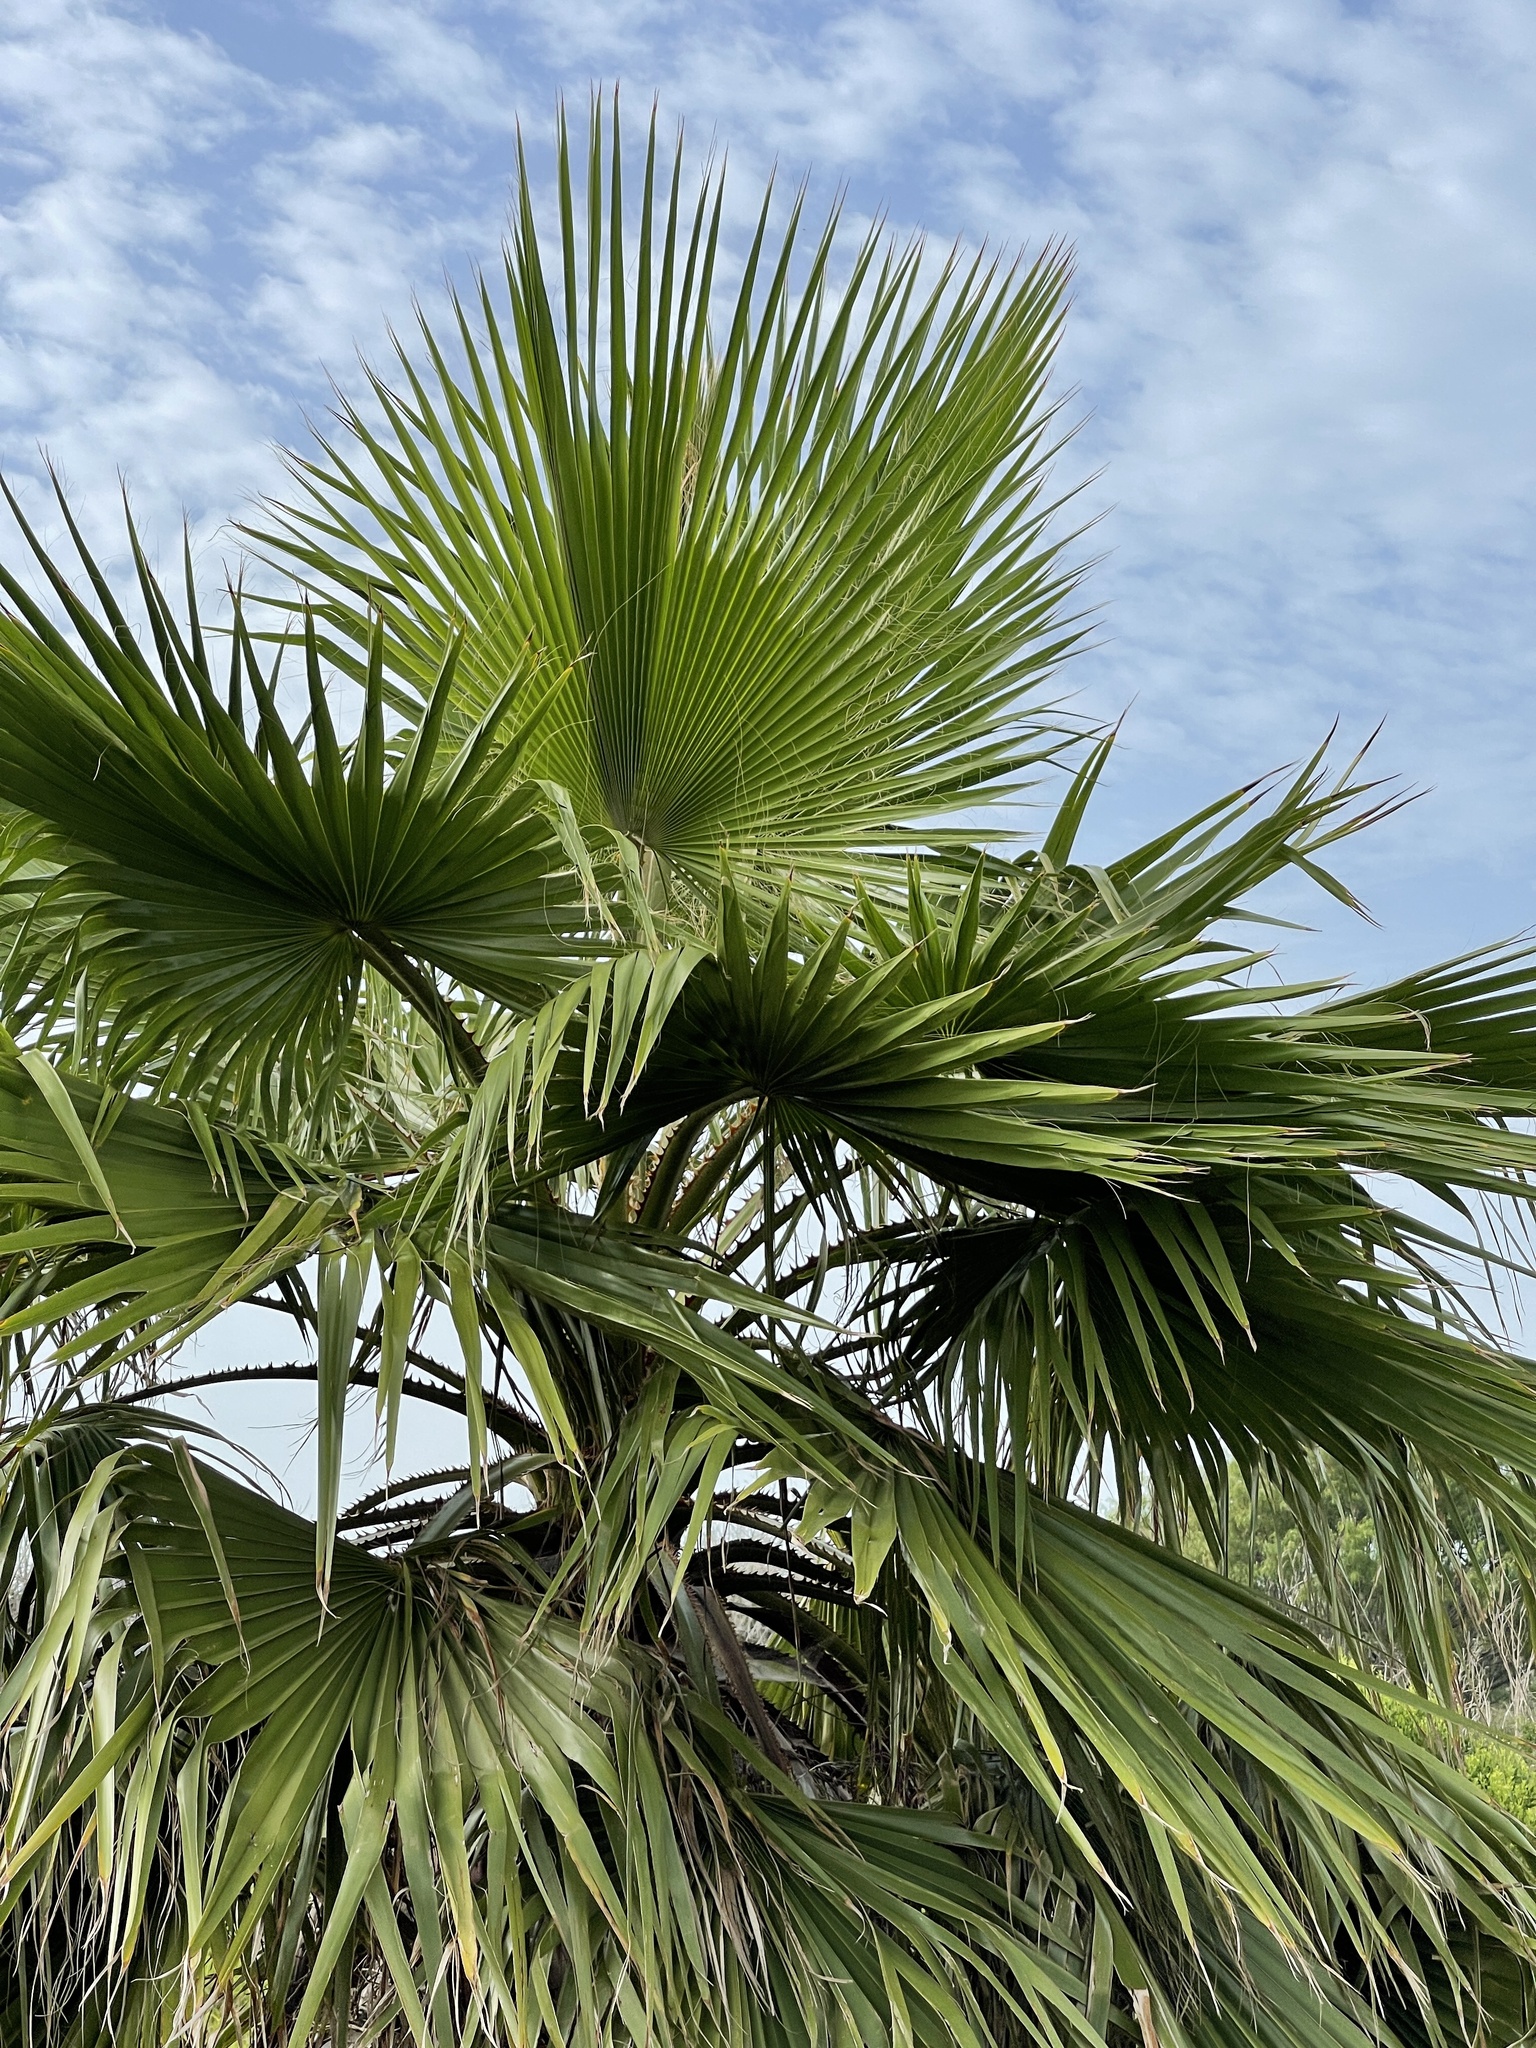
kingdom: Plantae
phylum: Tracheophyta
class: Liliopsida
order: Arecales
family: Arecaceae
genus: Washingtonia
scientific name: Washingtonia robusta
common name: Mexican fan palm
